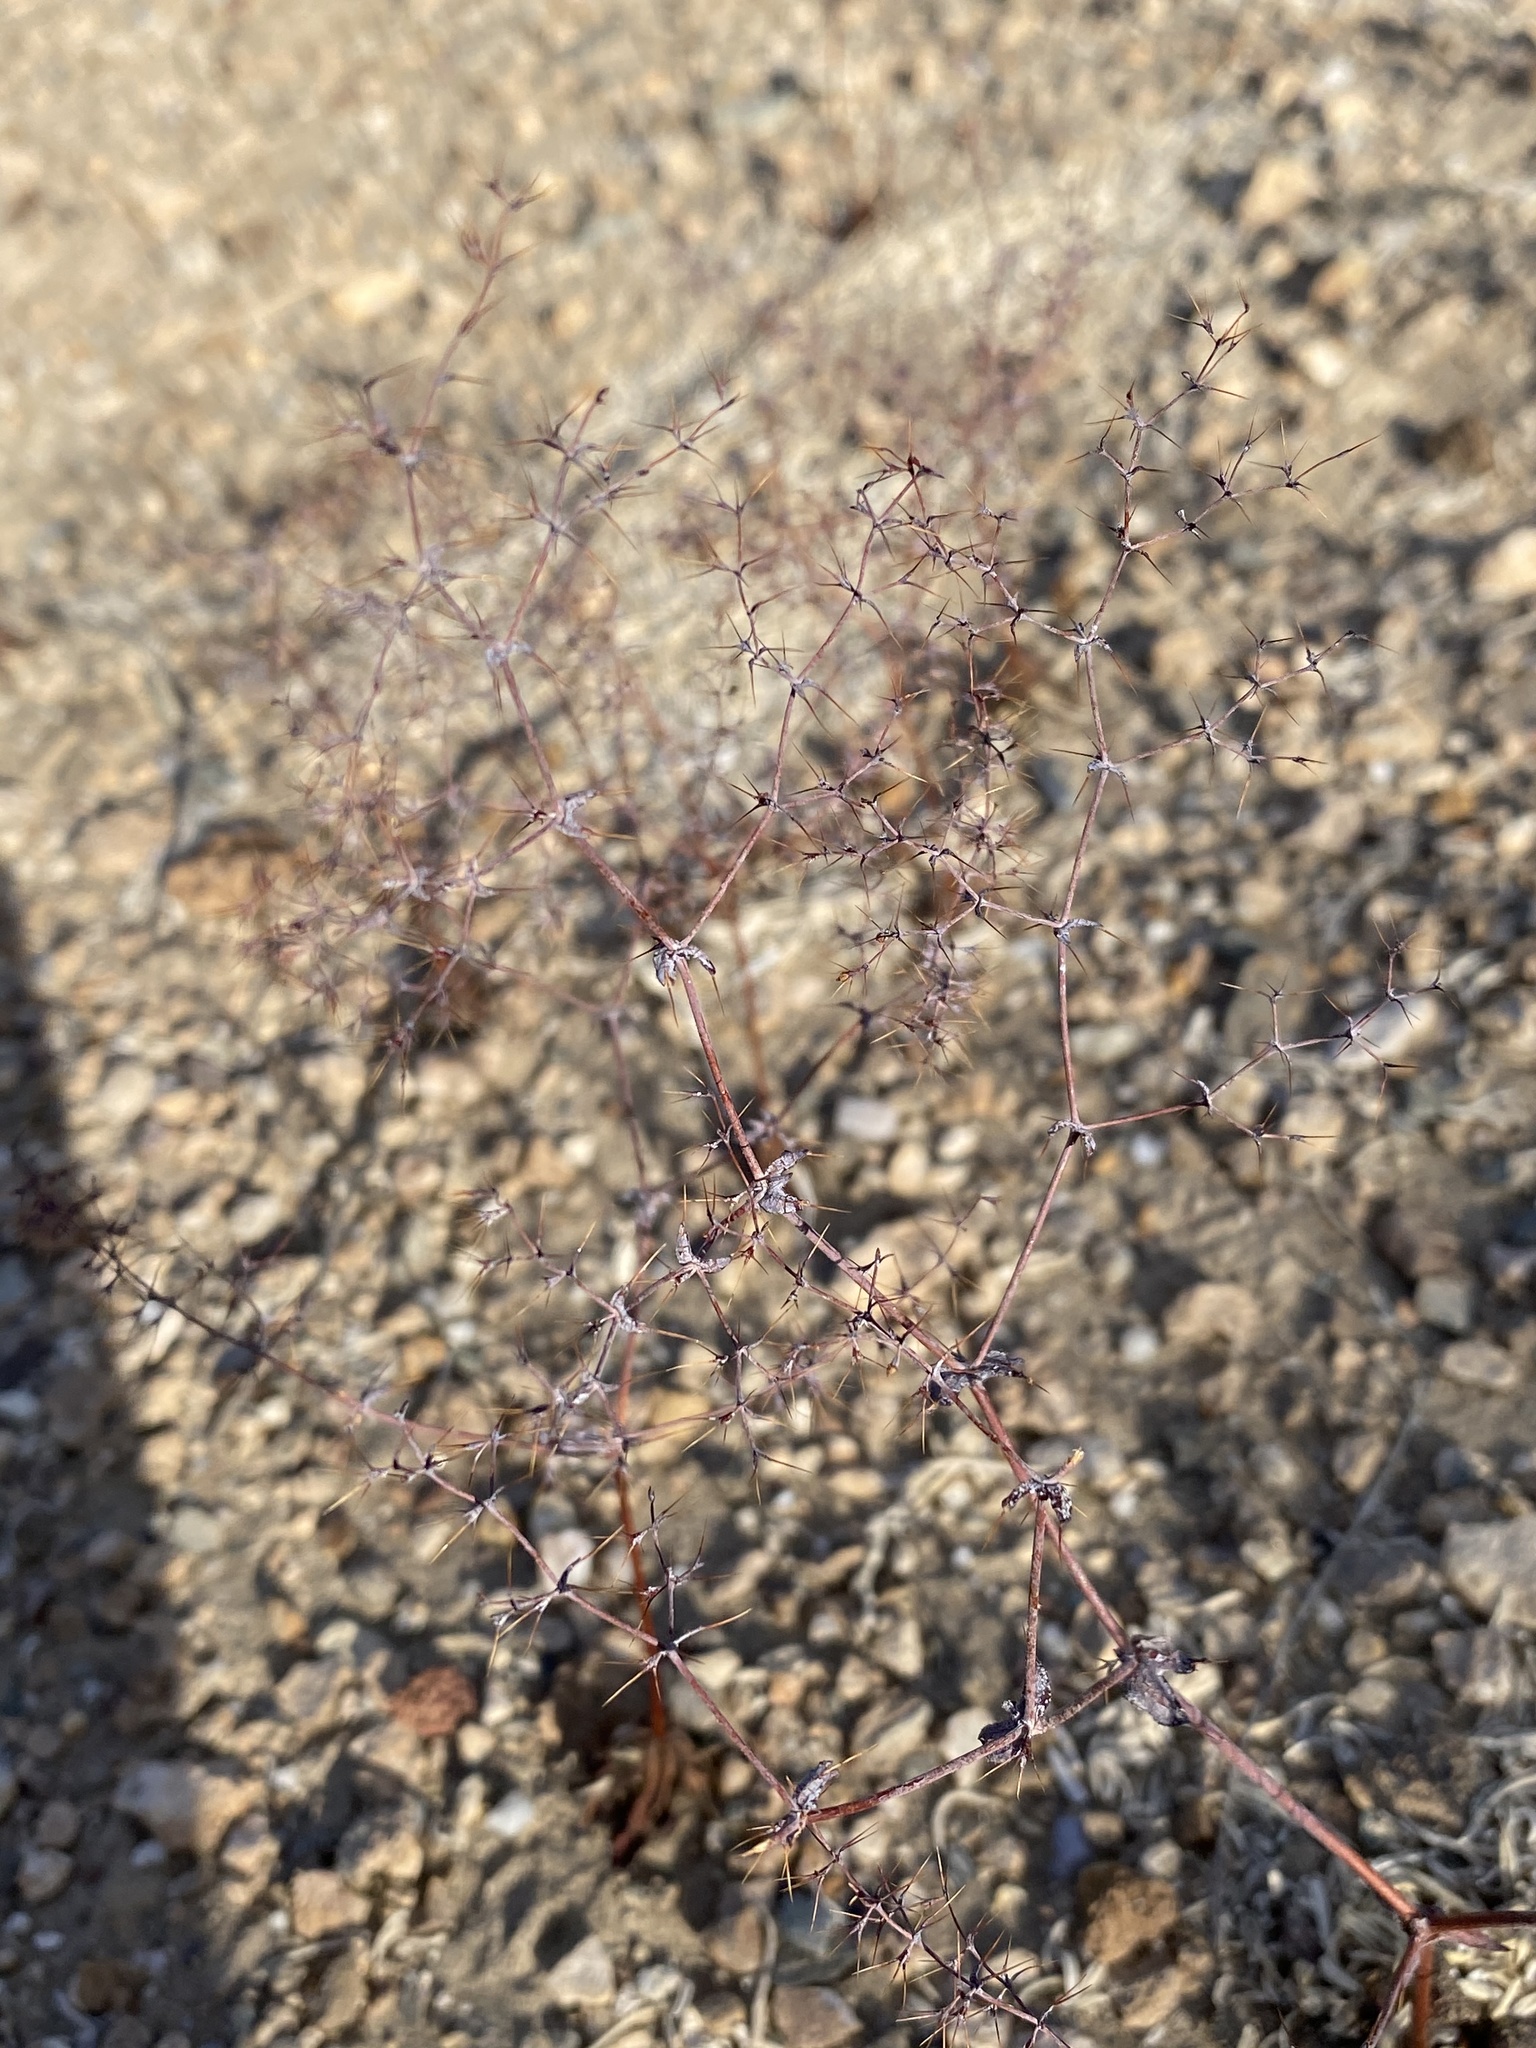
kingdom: Plantae
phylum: Tracheophyta
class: Magnoliopsida
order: Caryophyllales
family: Polygonaceae
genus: Oxytheca
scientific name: Oxytheca watsonii
